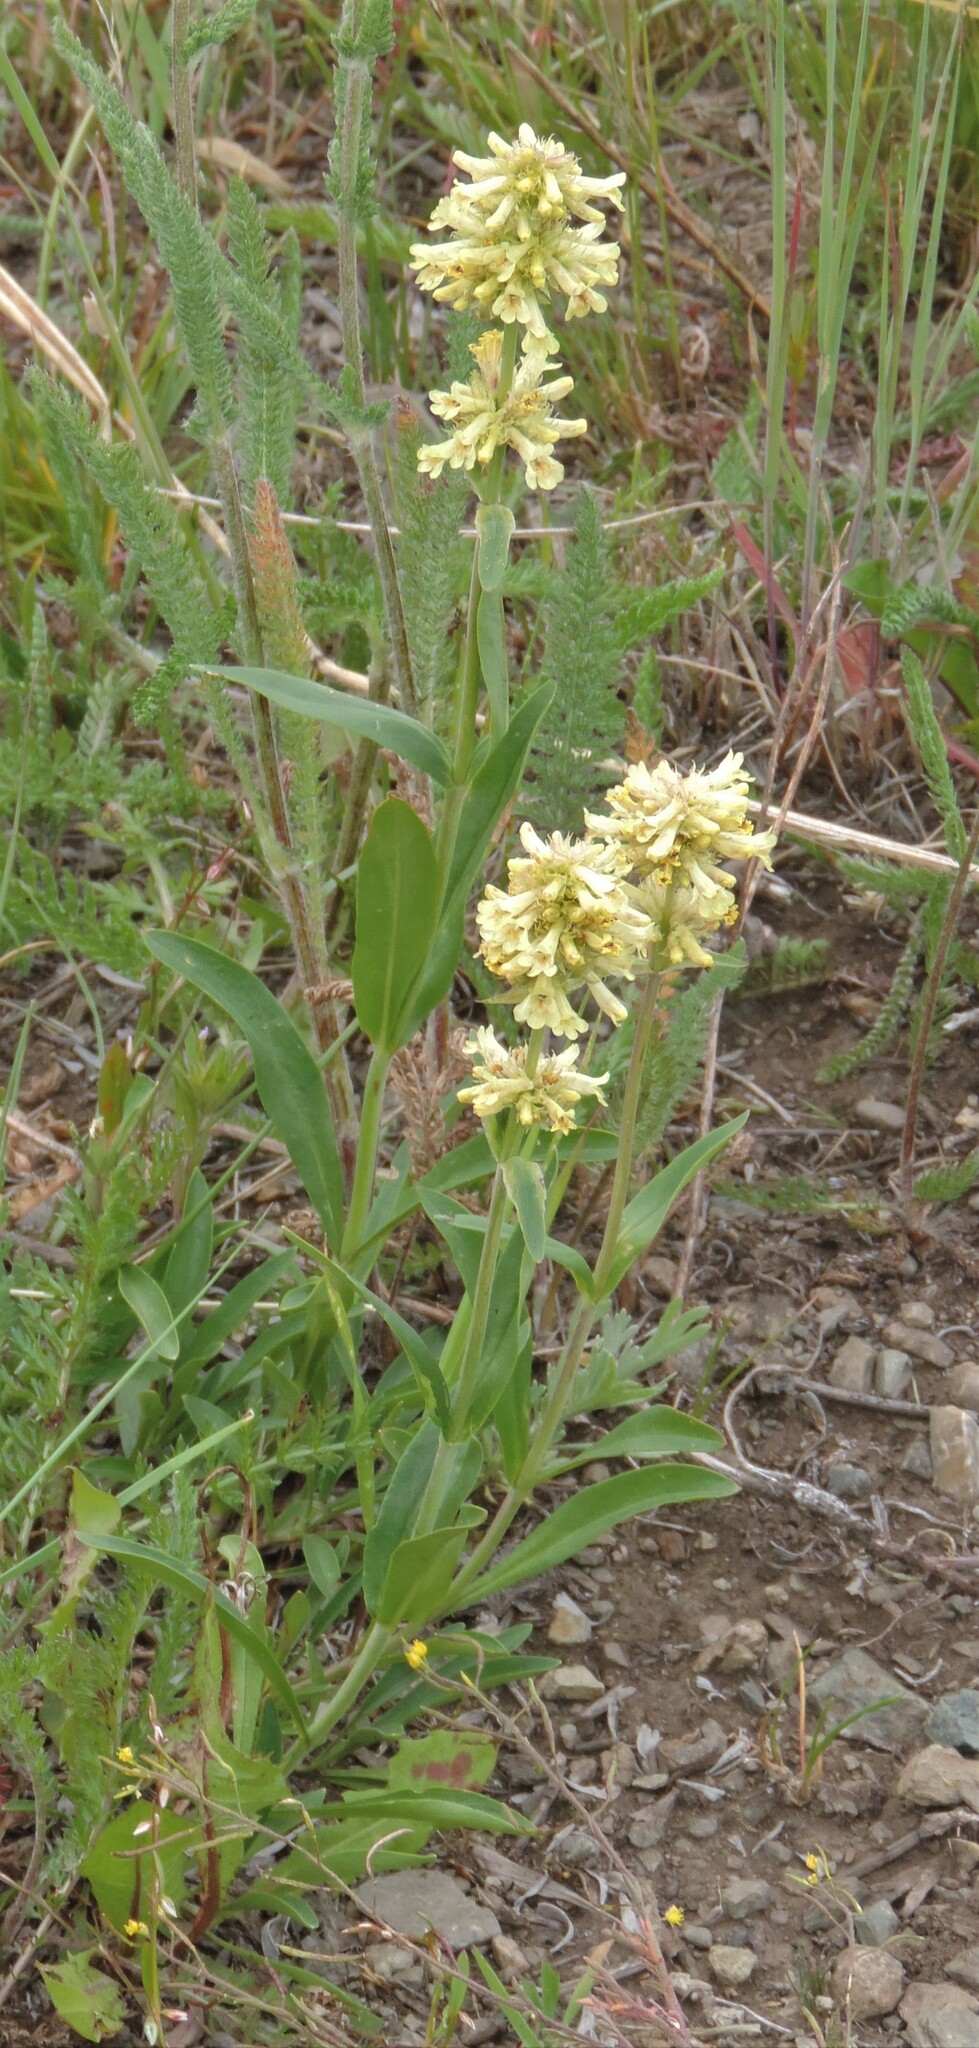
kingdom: Plantae
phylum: Tracheophyta
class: Magnoliopsida
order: Lamiales
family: Plantaginaceae
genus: Penstemon
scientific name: Penstemon confertus
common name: Lesser yellow beardtongue
